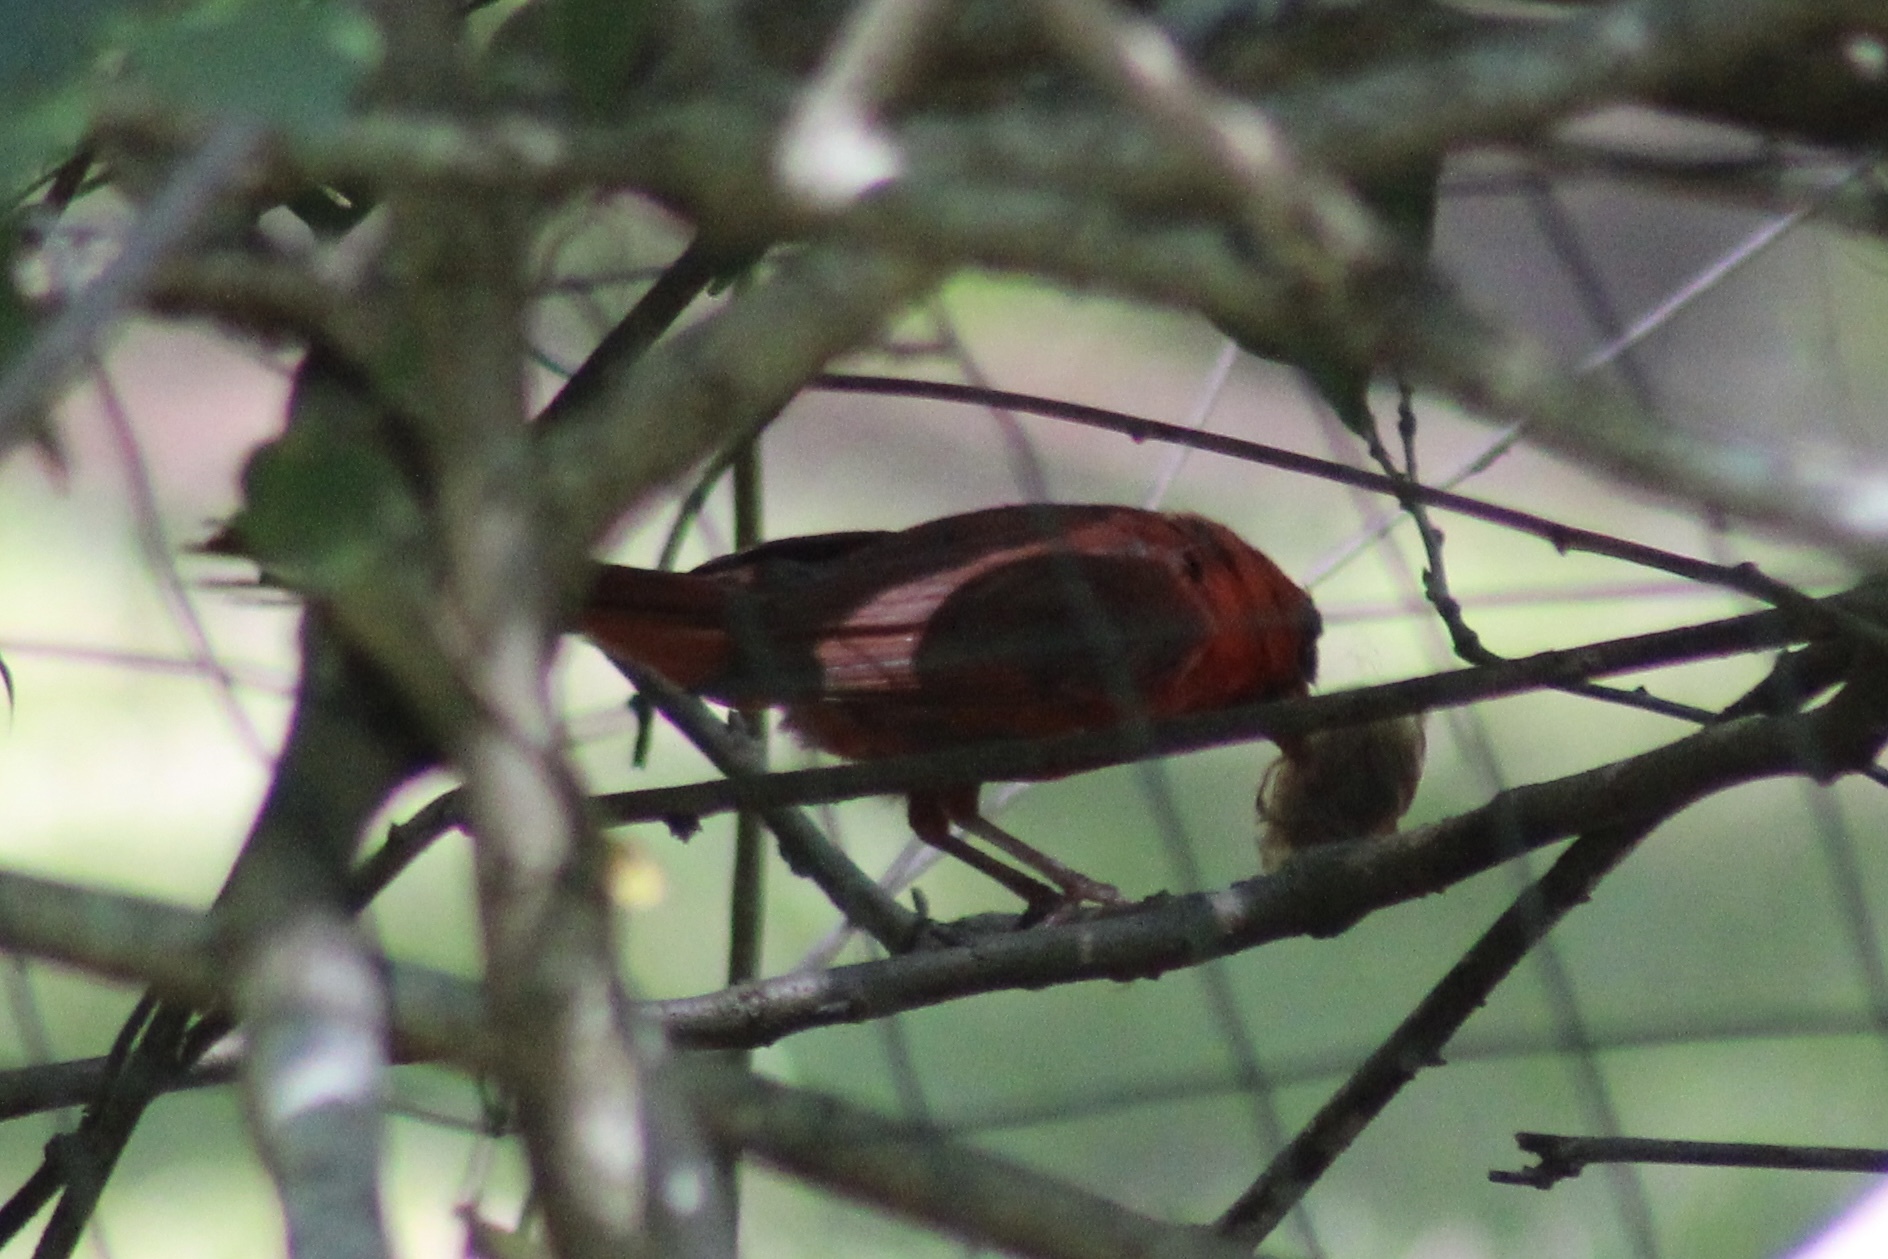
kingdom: Animalia
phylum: Chordata
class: Aves
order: Passeriformes
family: Cardinalidae
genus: Cardinalis
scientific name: Cardinalis cardinalis
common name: Northern cardinal
